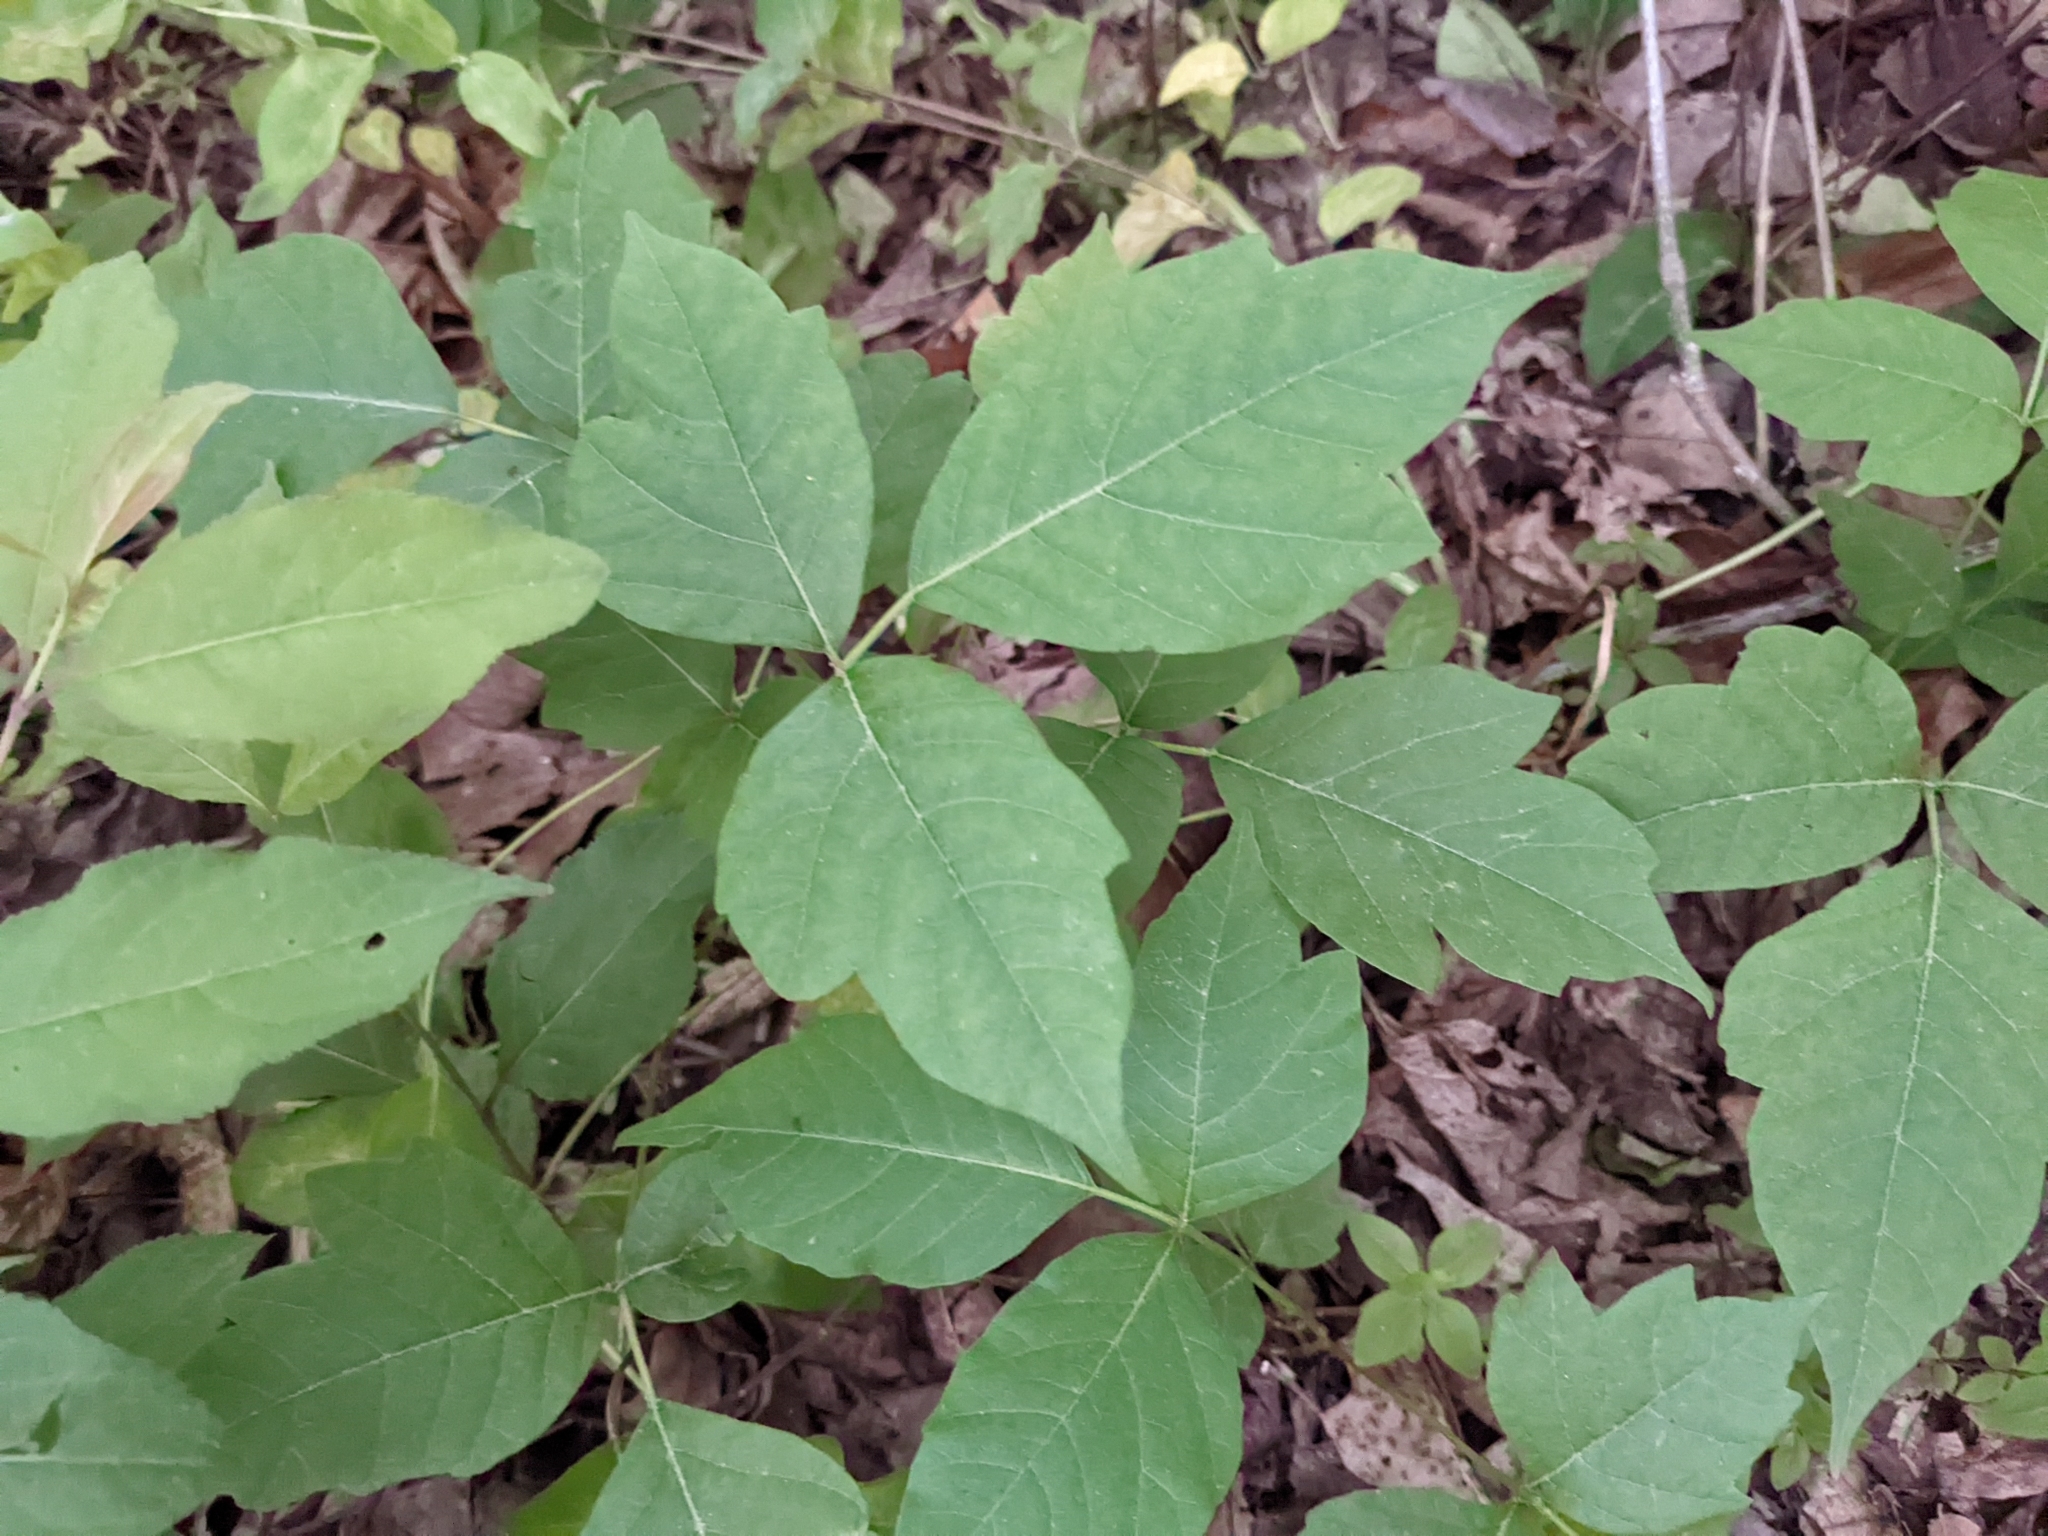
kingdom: Plantae
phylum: Tracheophyta
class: Magnoliopsida
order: Sapindales
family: Anacardiaceae
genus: Toxicodendron
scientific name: Toxicodendron radicans
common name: Poison ivy
